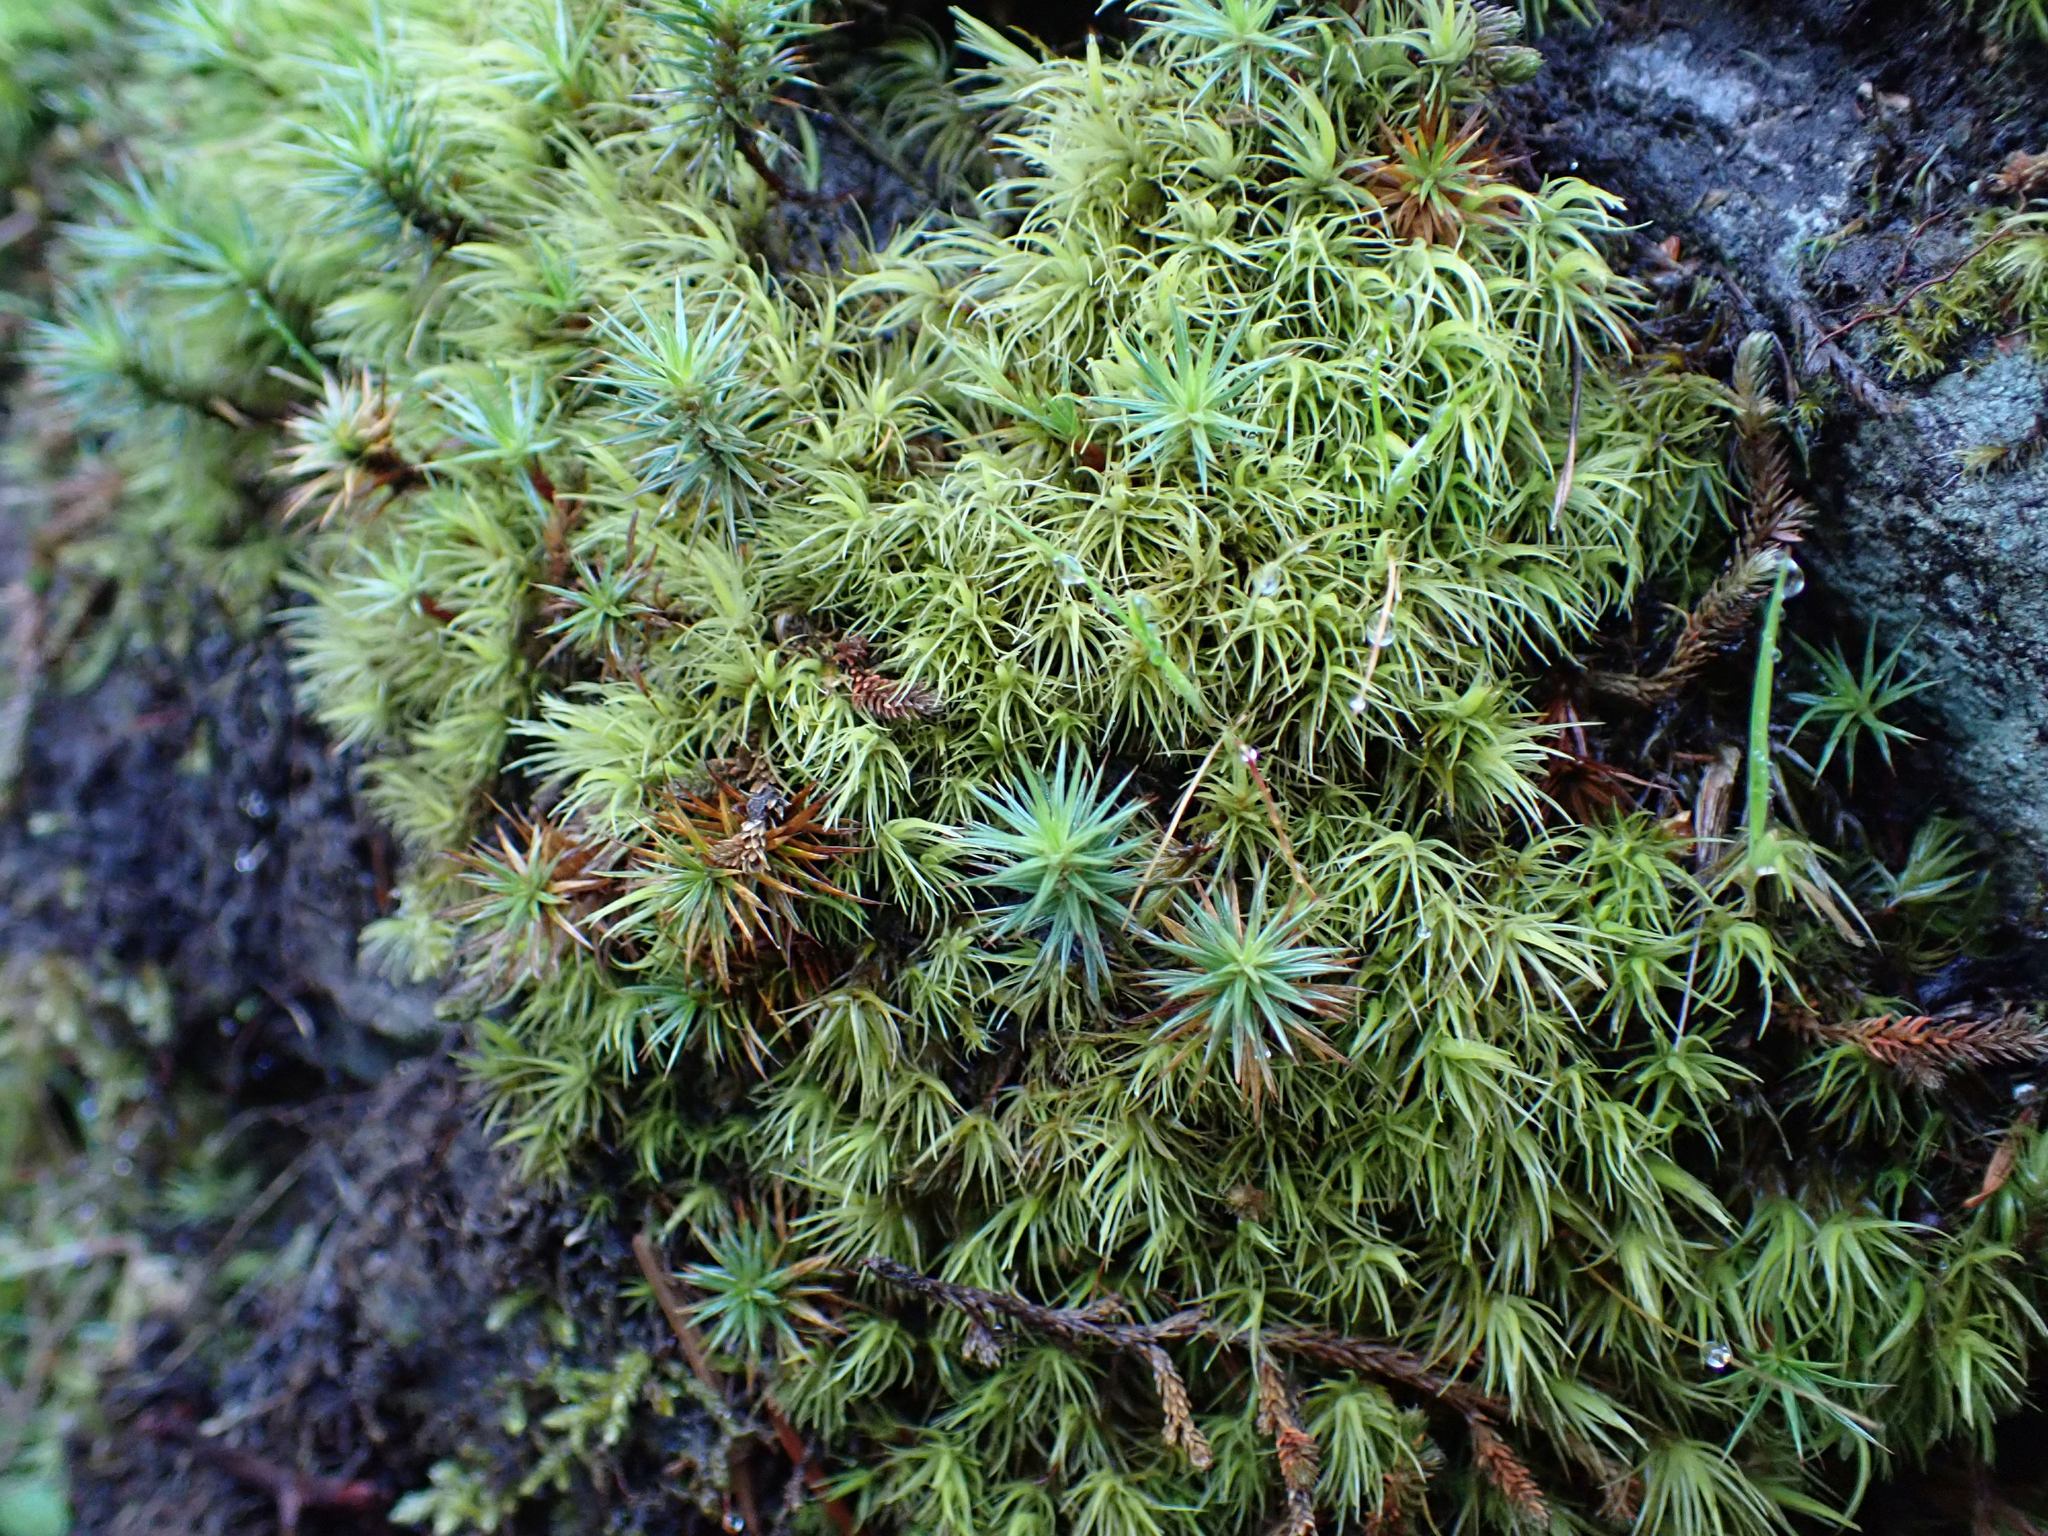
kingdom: Plantae
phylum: Bryophyta
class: Polytrichopsida
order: Polytrichales
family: Polytrichaceae
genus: Polytrichum
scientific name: Polytrichum juniperinum
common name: Juniper haircap moss
